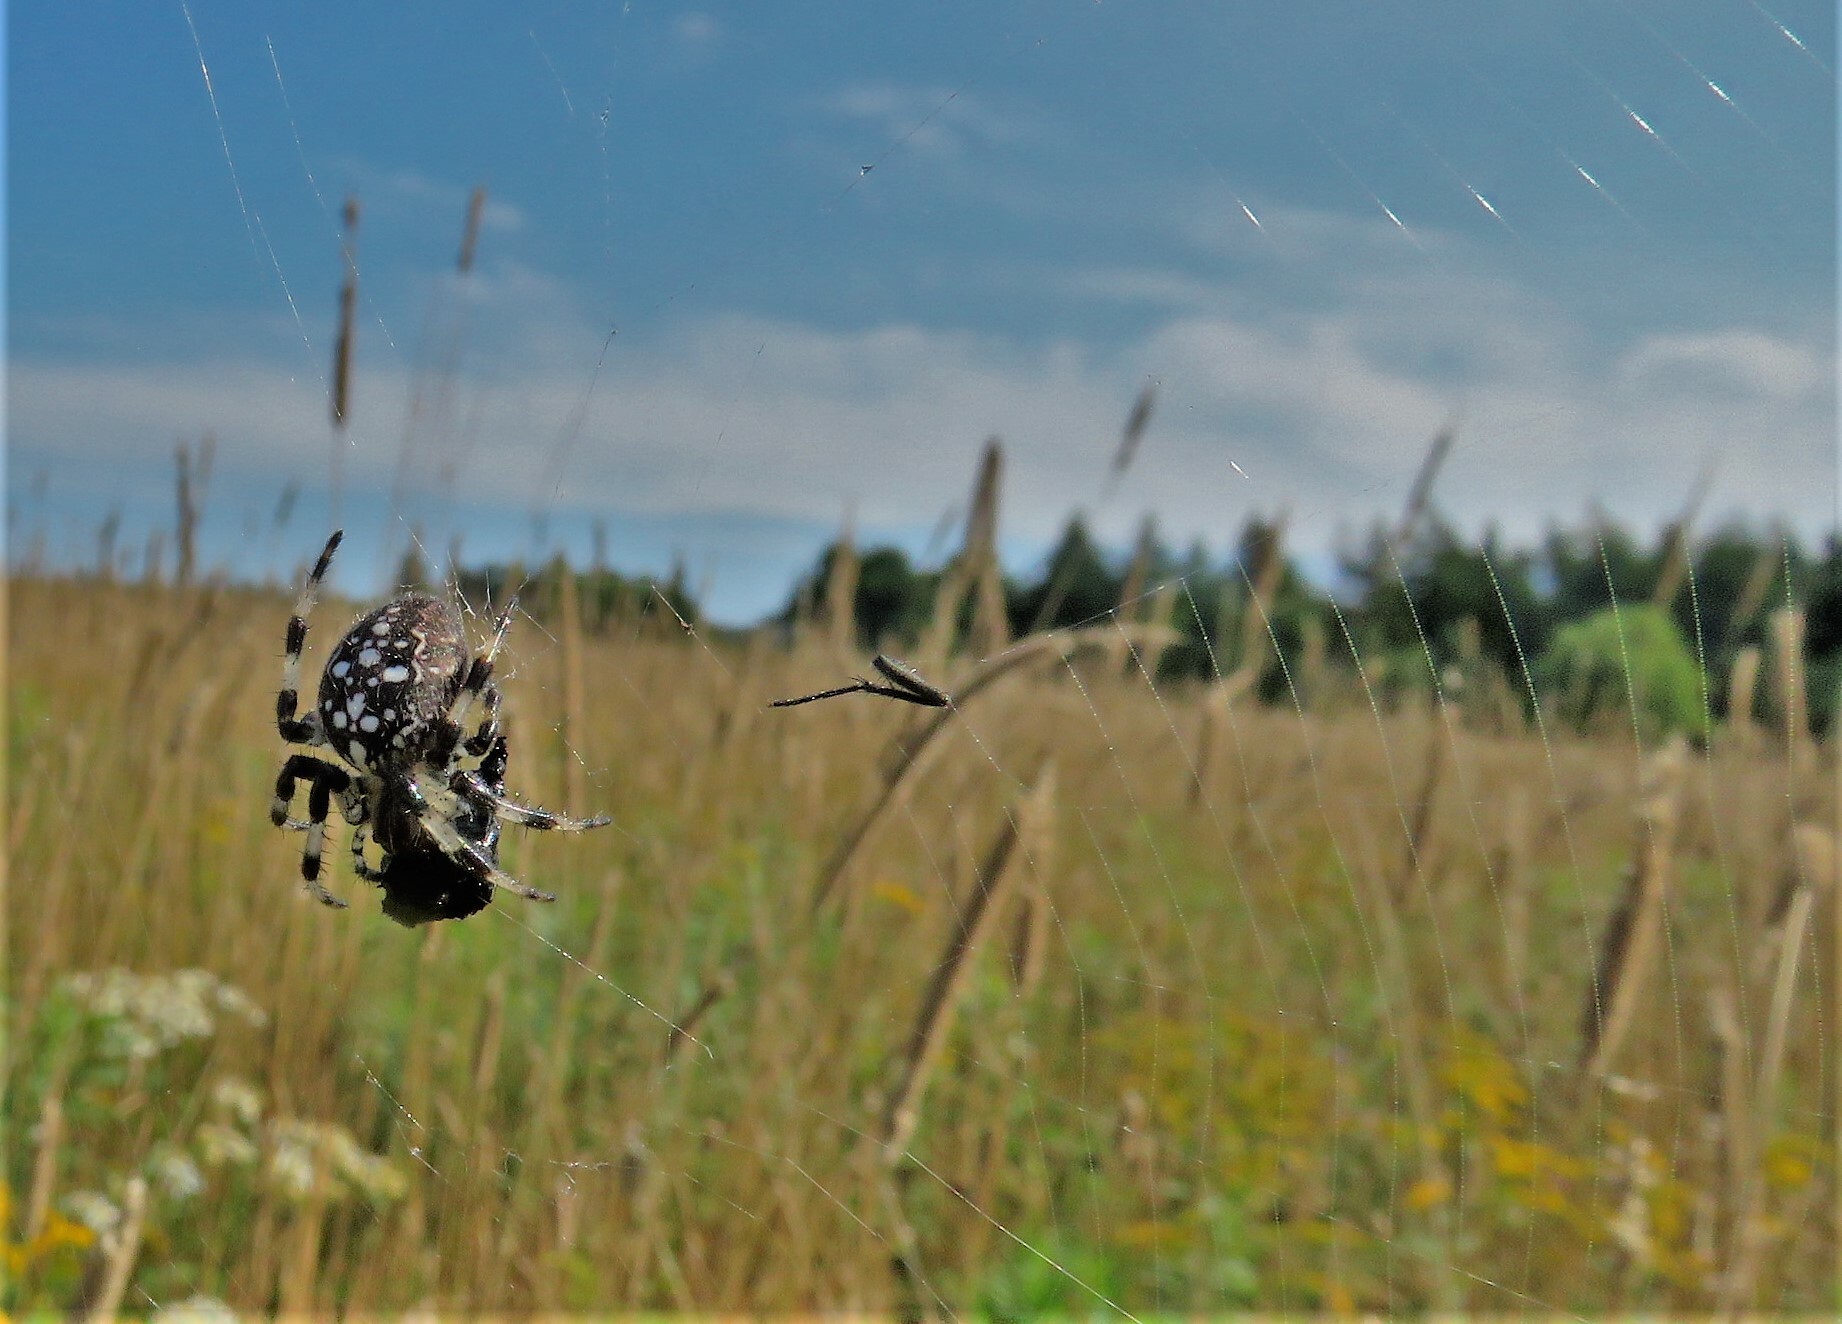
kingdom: Animalia
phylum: Arthropoda
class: Arachnida
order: Araneae
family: Araneidae
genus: Araneus
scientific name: Araneus trifolium
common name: Shamrock orbweaver
